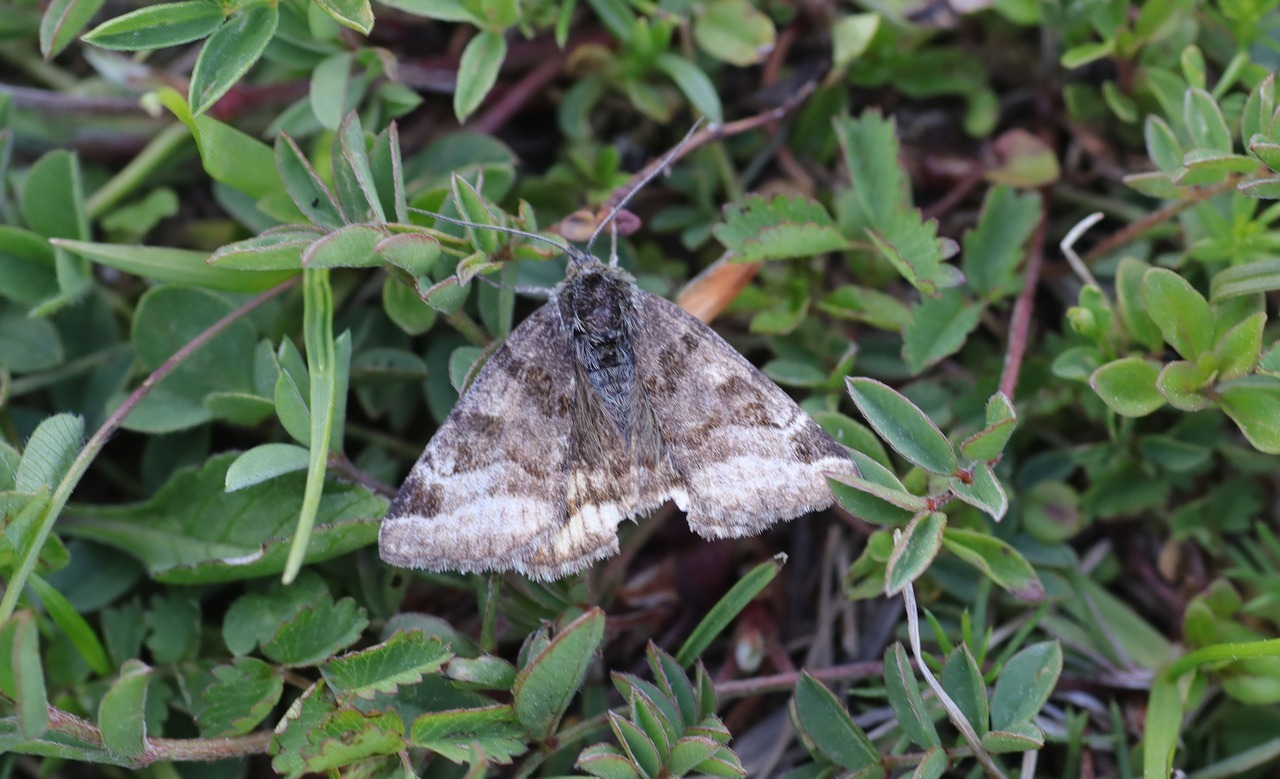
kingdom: Animalia
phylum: Arthropoda
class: Insecta
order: Lepidoptera
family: Erebidae
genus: Euclidia
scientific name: Euclidia glyphica
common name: Burnet companion
